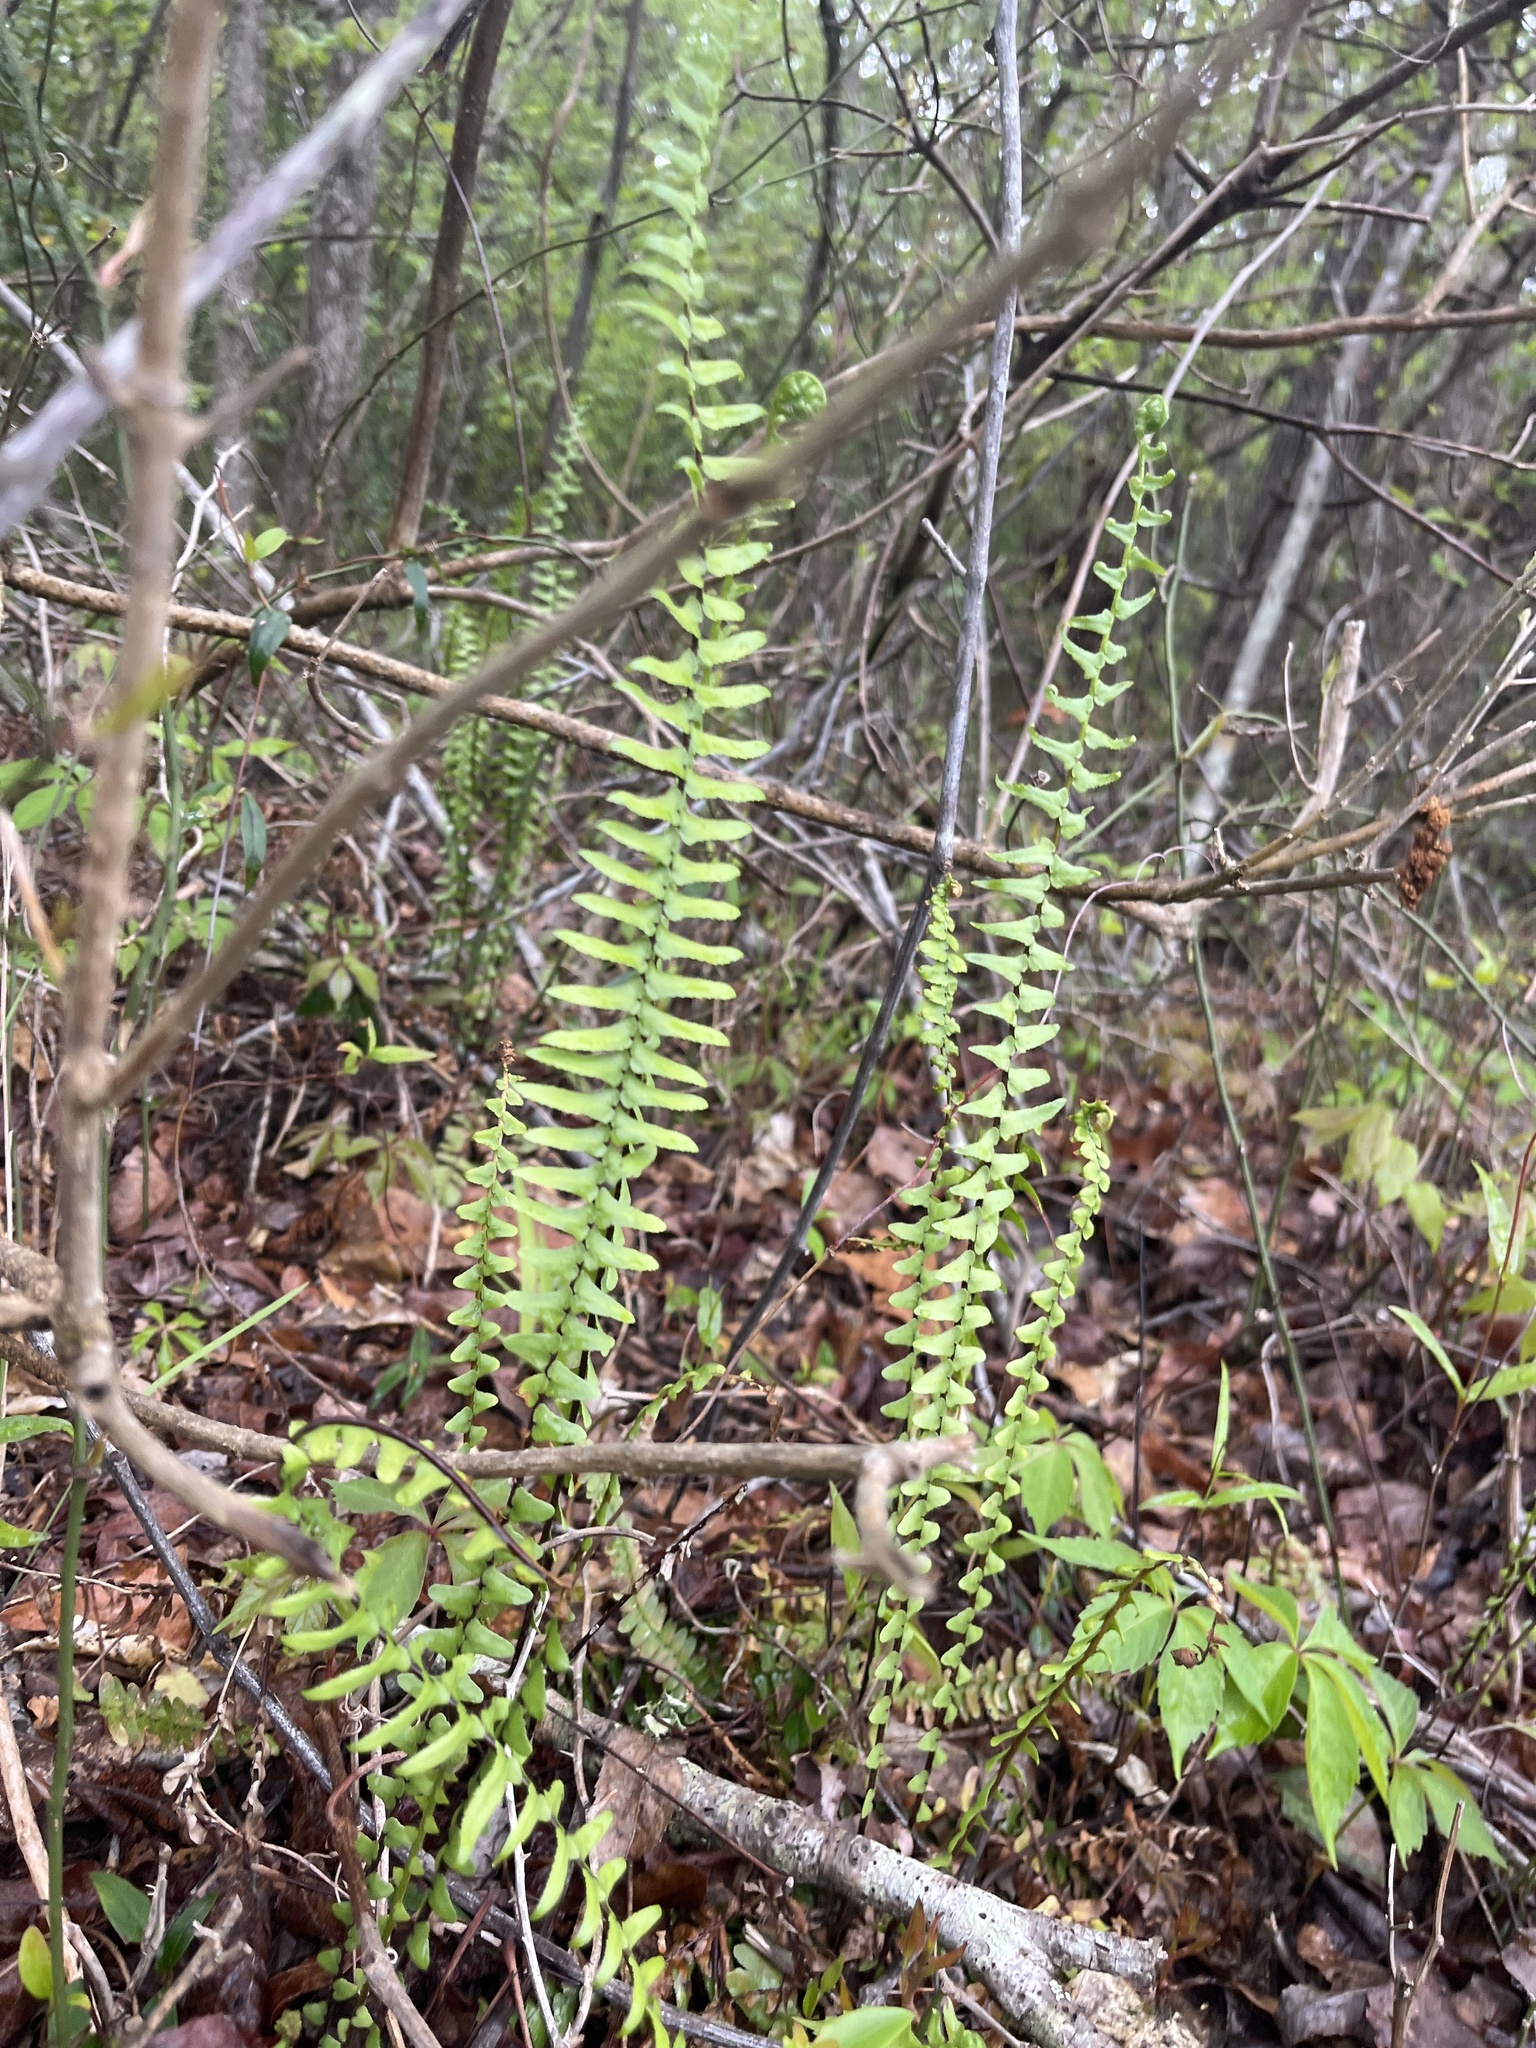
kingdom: Plantae
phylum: Tracheophyta
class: Polypodiopsida
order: Polypodiales
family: Aspleniaceae
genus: Asplenium
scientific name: Asplenium platyneuron
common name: Ebony spleenwort
